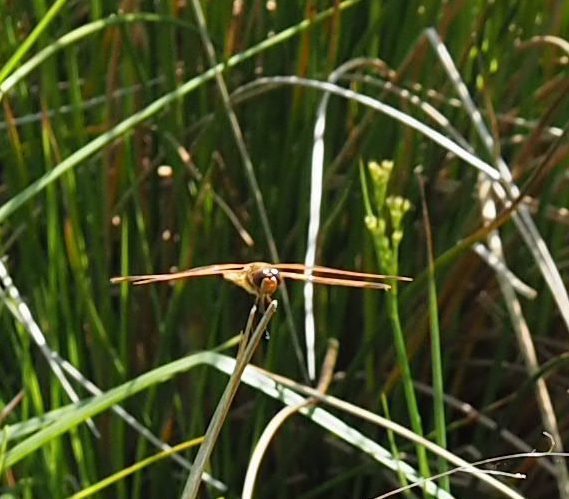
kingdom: Animalia
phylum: Arthropoda
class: Insecta
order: Odonata
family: Libellulidae
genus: Libellula
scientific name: Libellula semifasciata
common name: Painted skimmer
